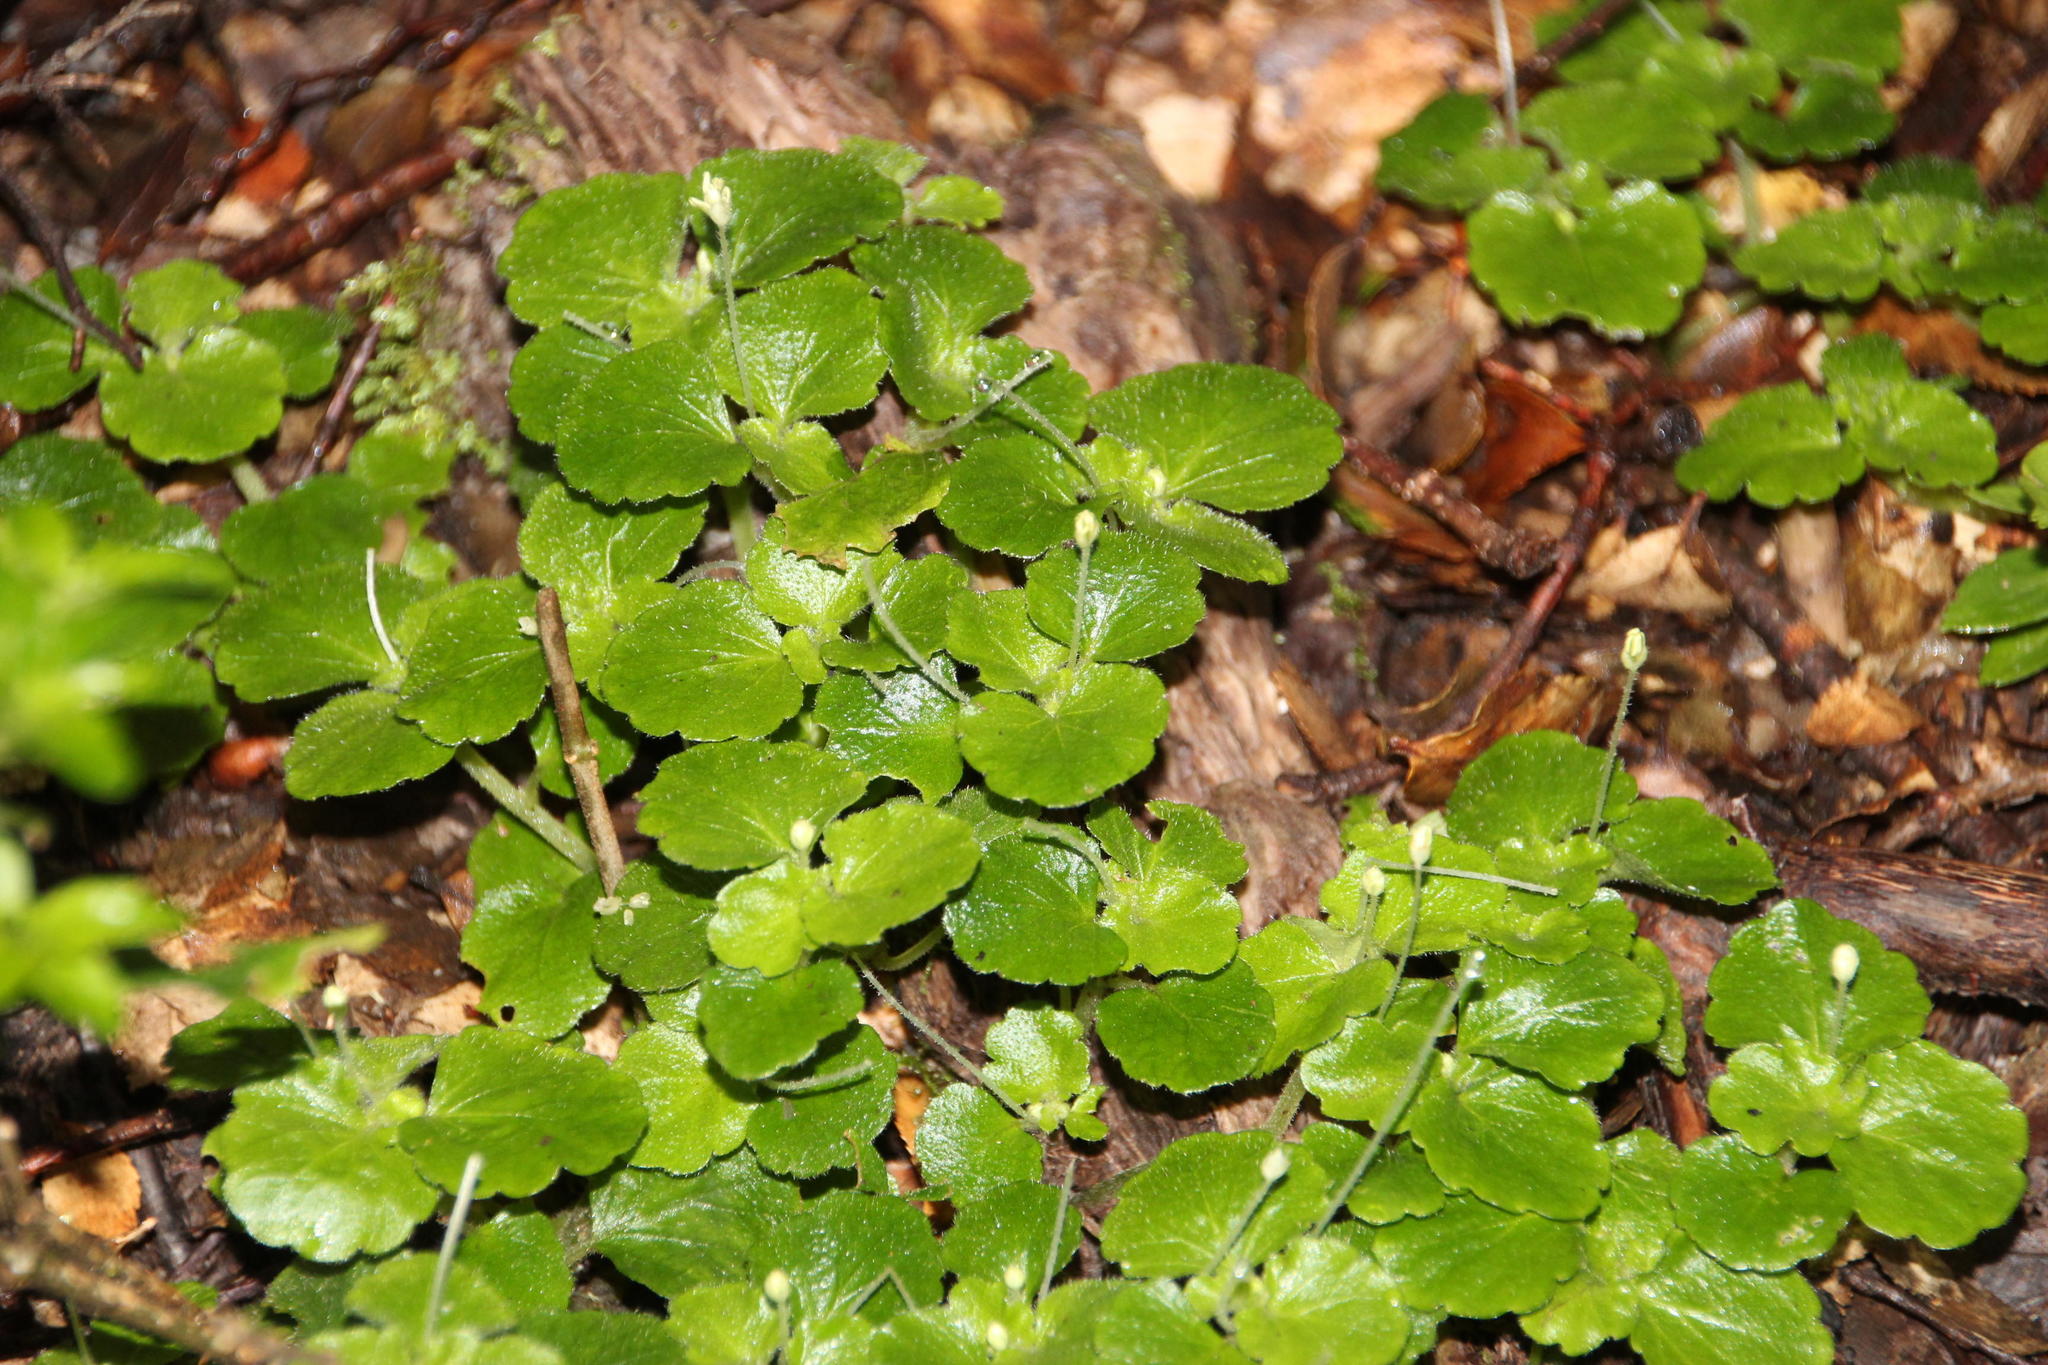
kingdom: Plantae
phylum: Tracheophyta
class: Magnoliopsida
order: Malpighiales
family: Euphorbiaceae
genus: Dysopsis
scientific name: Dysopsis glechomoides
